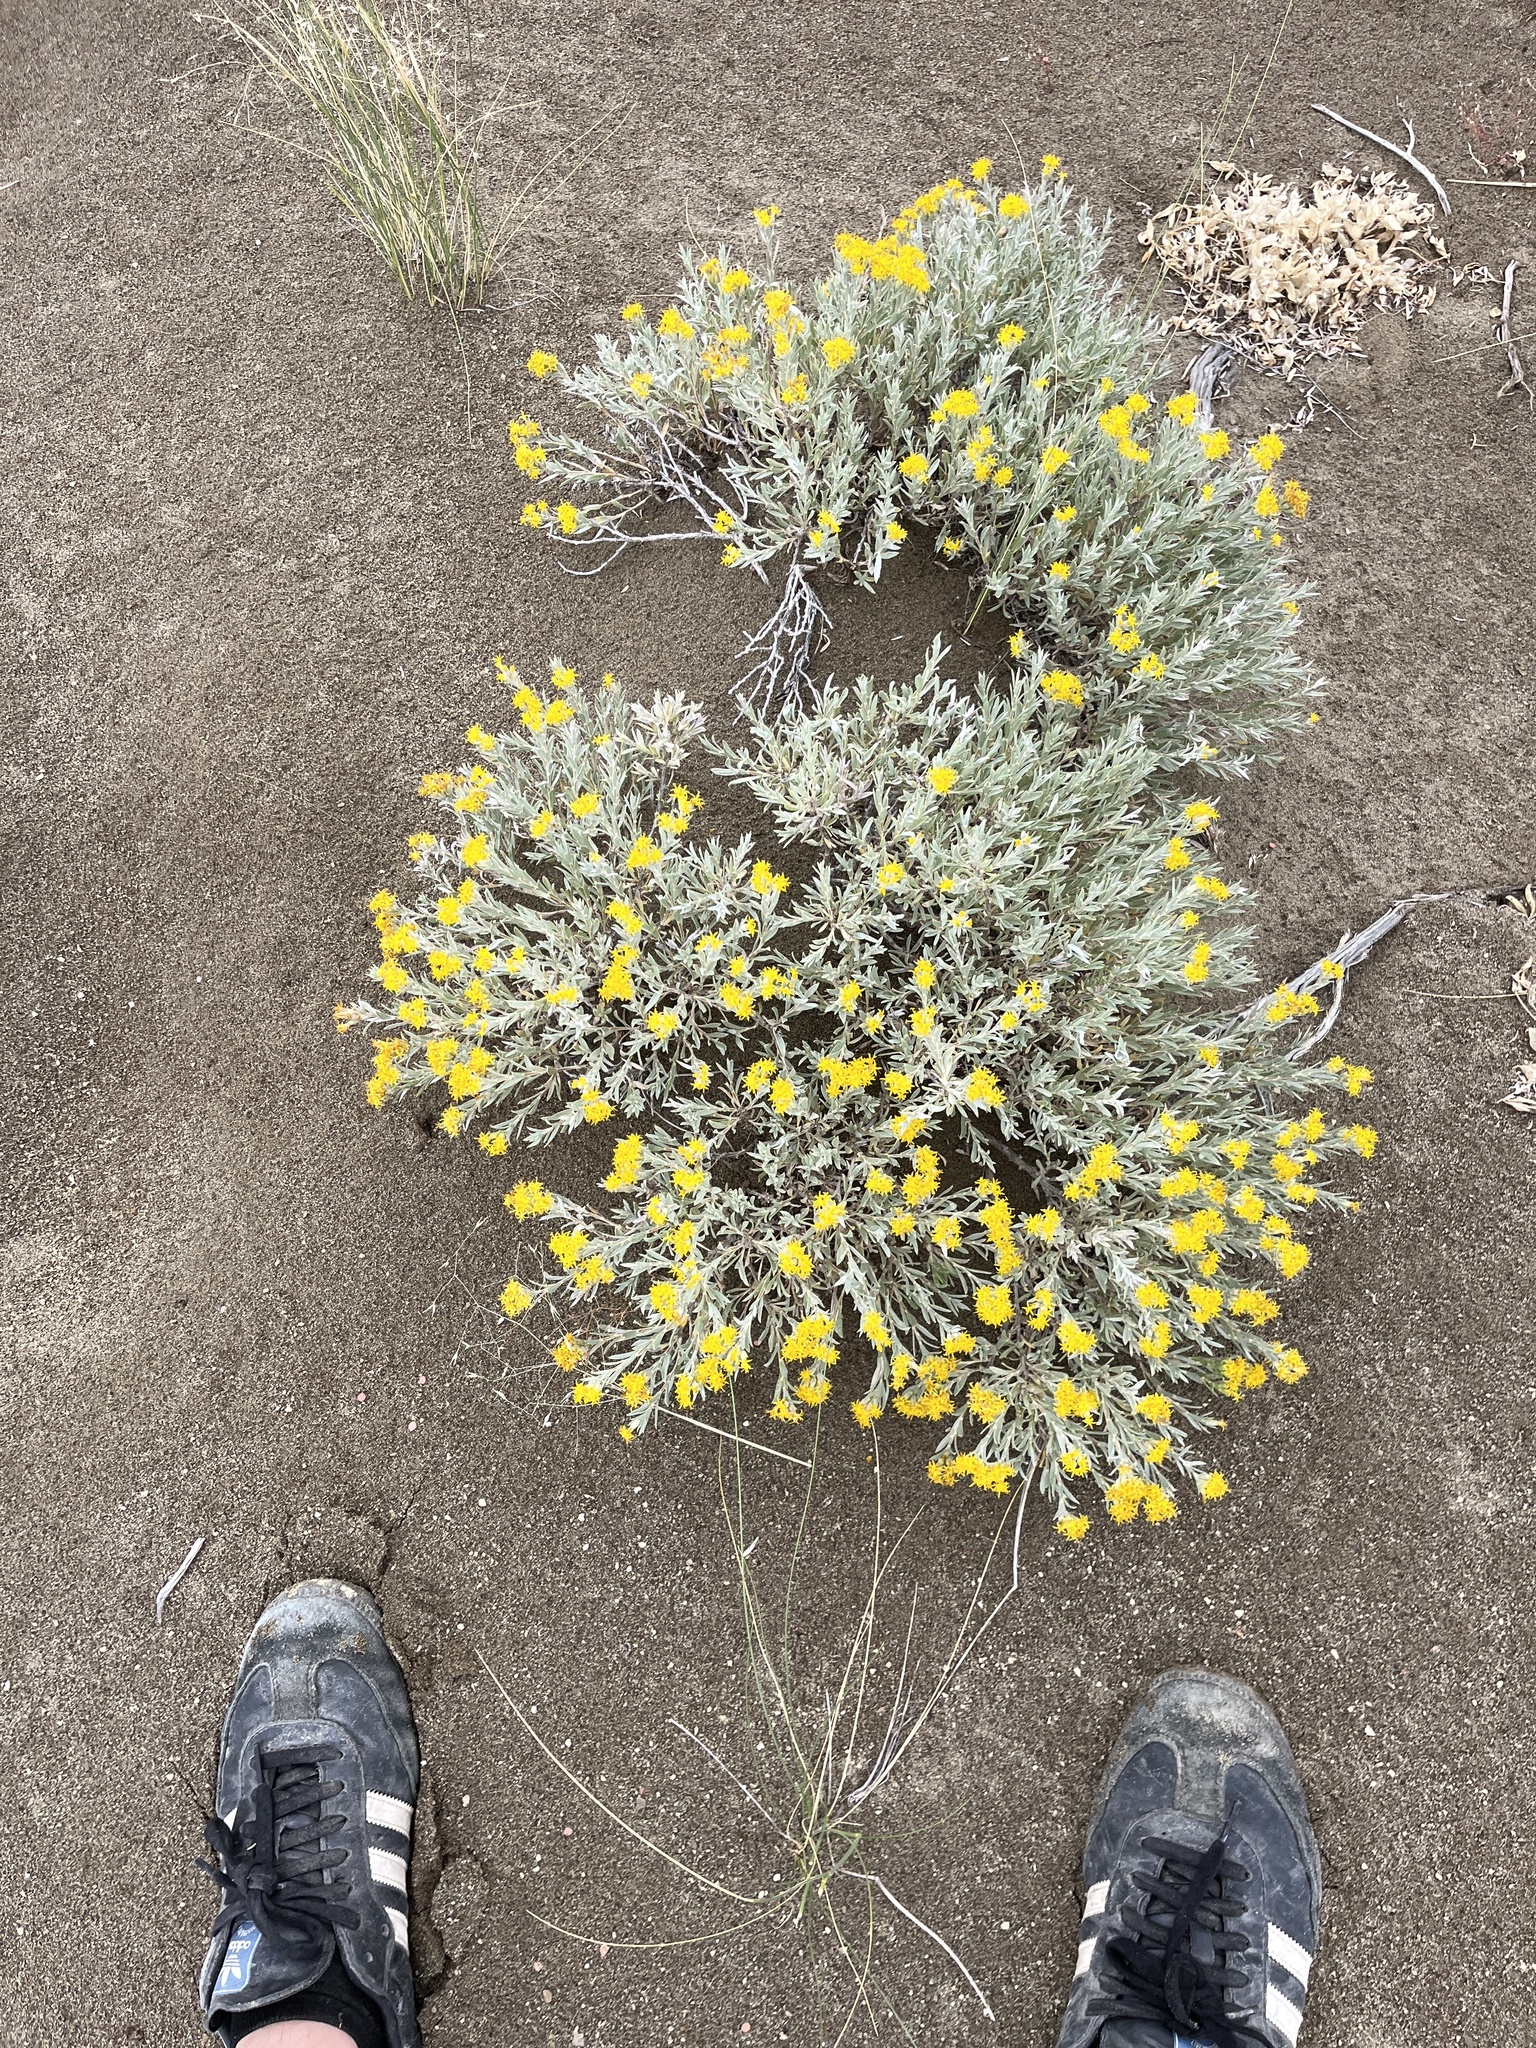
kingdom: Plantae
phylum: Tracheophyta
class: Magnoliopsida
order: Asterales
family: Asteraceae
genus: Tetradymia
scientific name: Tetradymia canescens
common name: Spineless horsebrush
